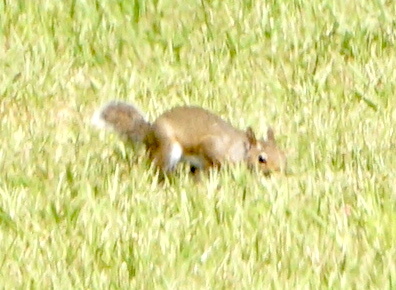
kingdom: Animalia
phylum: Chordata
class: Mammalia
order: Rodentia
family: Sciuridae
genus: Sciurus
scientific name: Sciurus carolinensis
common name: Eastern gray squirrel
